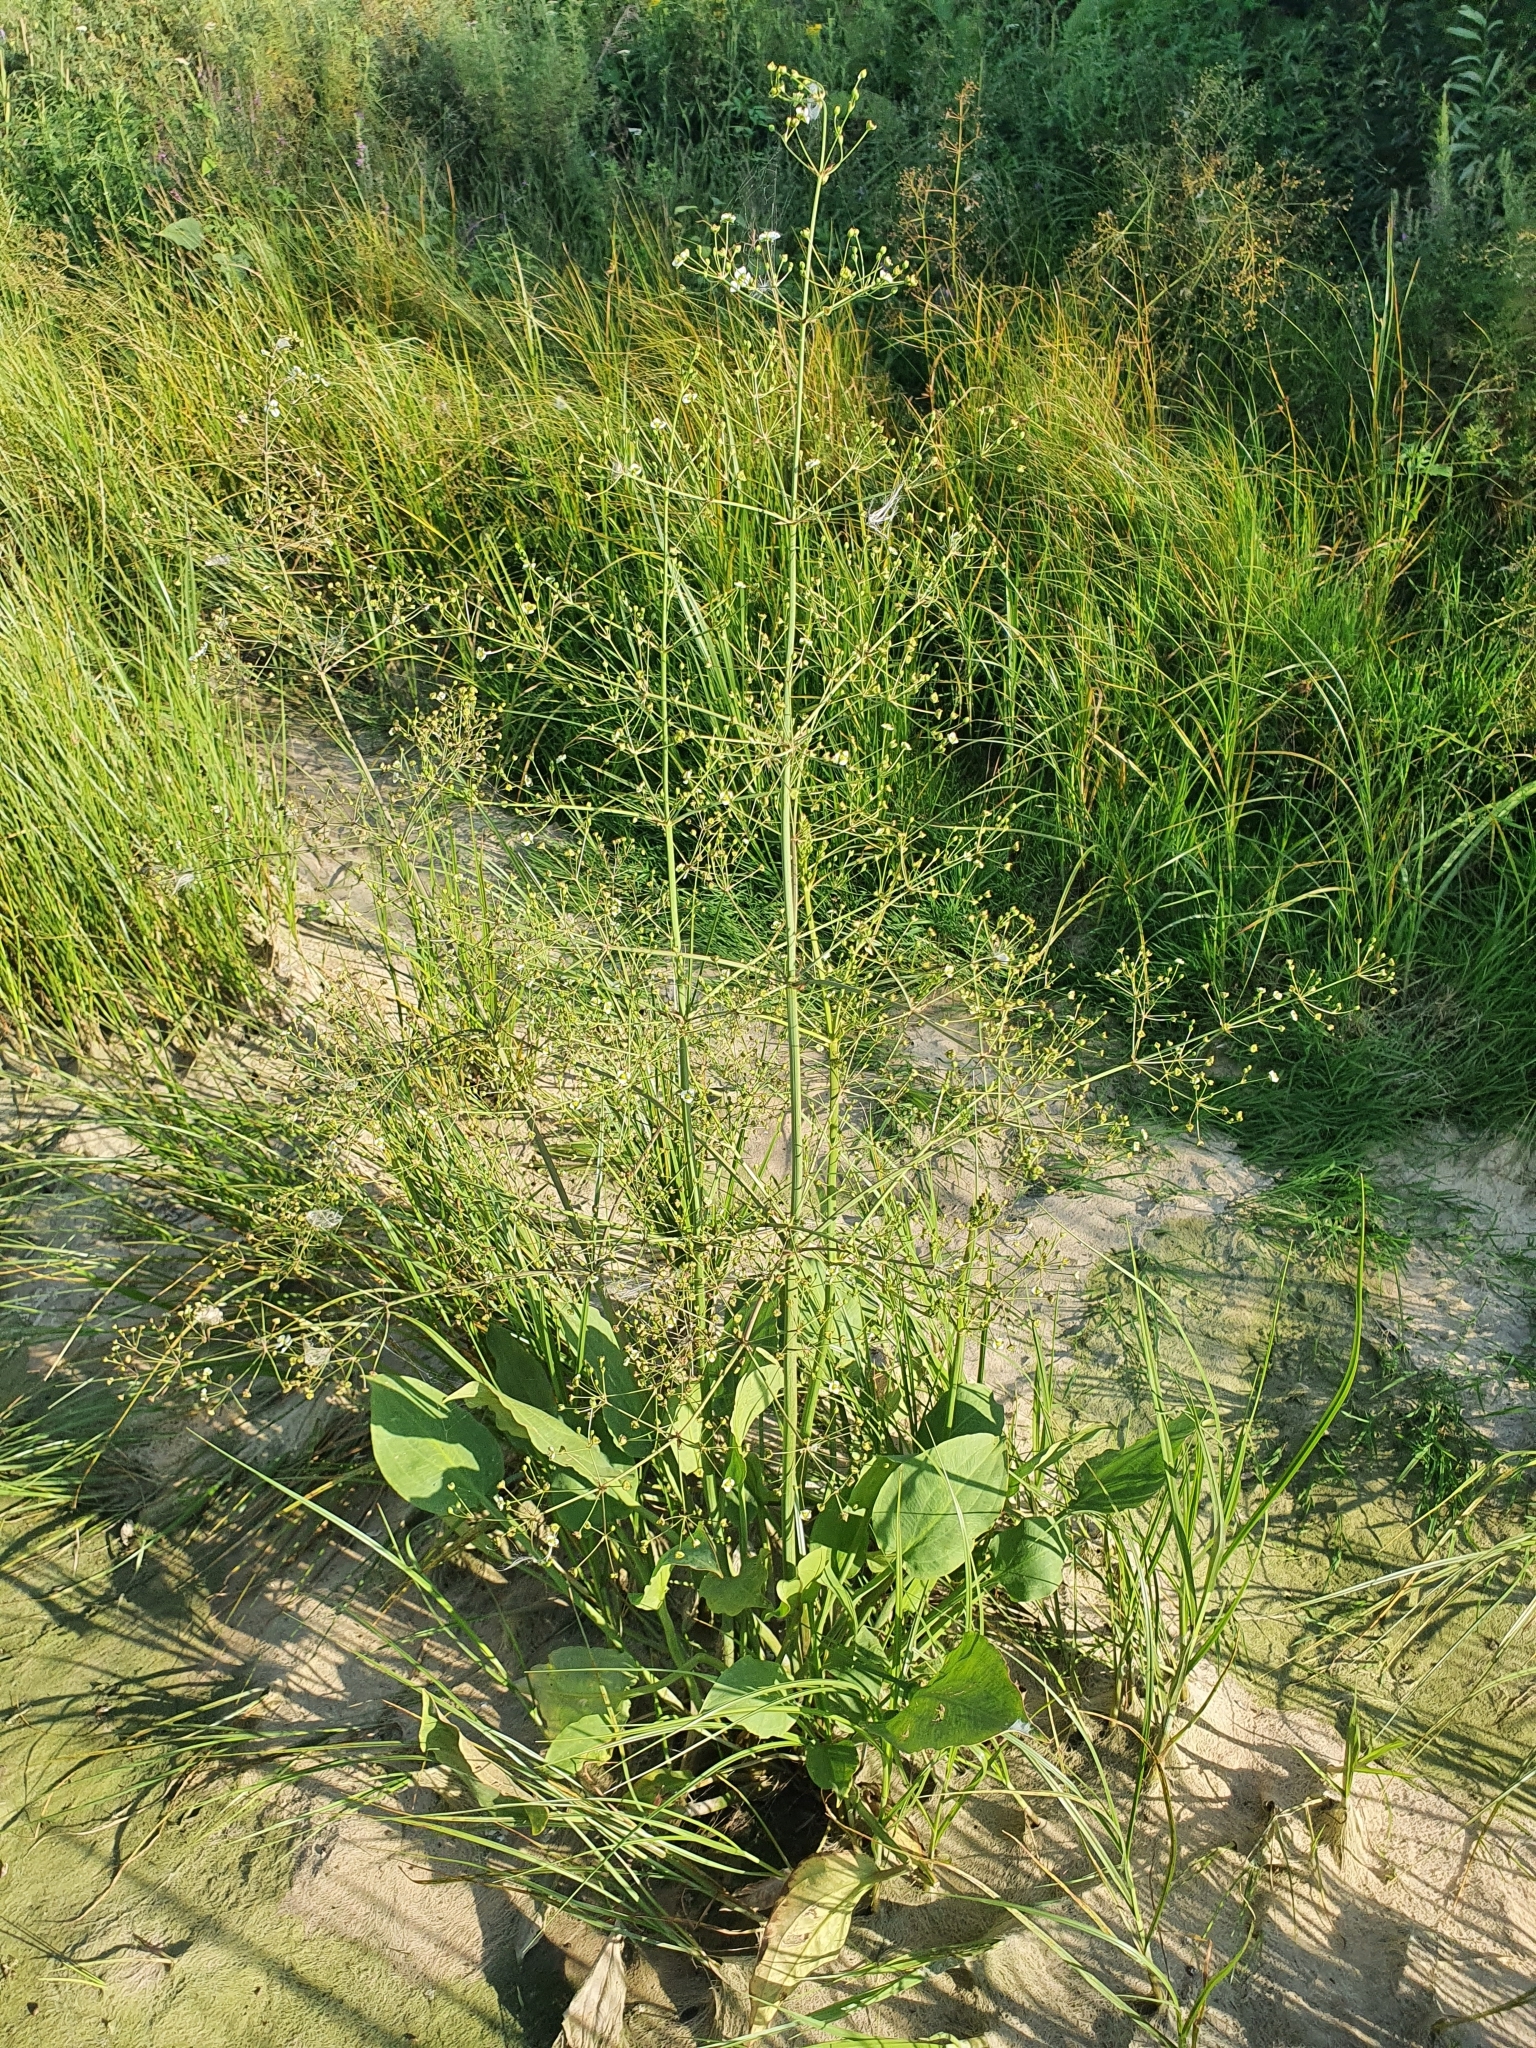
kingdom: Plantae
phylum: Tracheophyta
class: Liliopsida
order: Alismatales
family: Alismataceae
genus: Alisma
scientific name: Alisma plantago-aquatica
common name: Water-plantain
